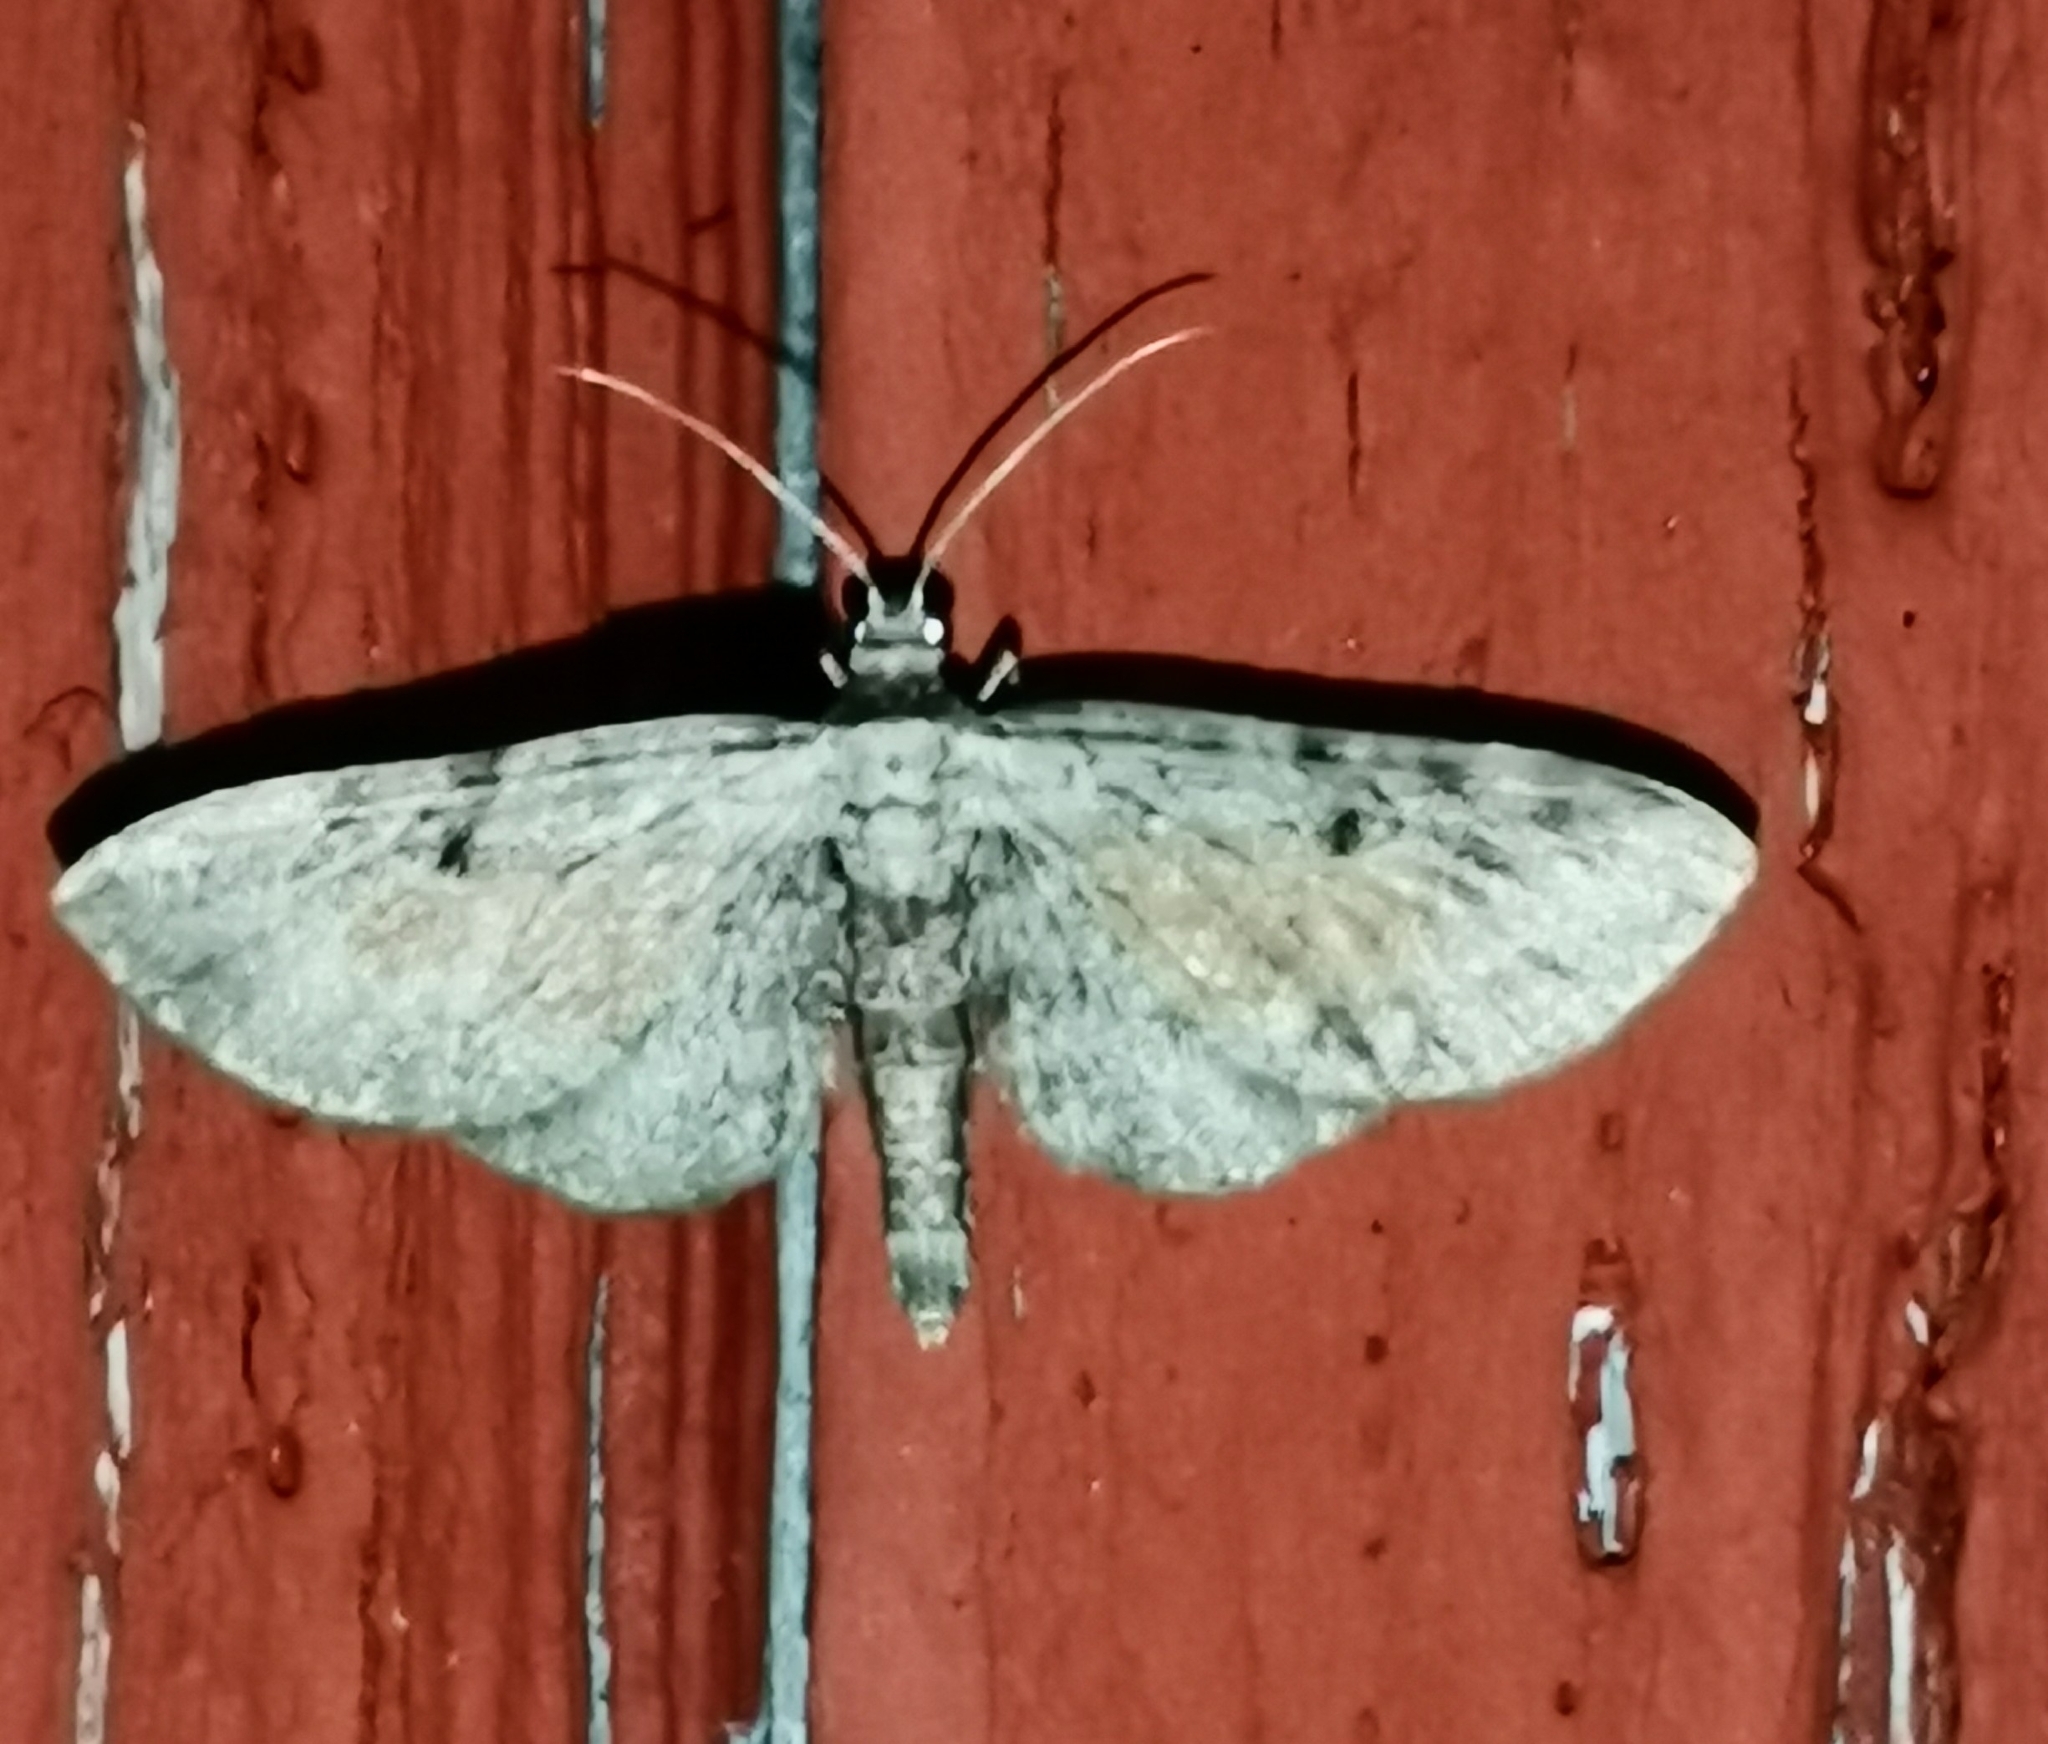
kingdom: Animalia
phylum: Arthropoda
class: Insecta
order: Lepidoptera
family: Geometridae
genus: Eupithecia
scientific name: Eupithecia icterata
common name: Tawny speckled pug
